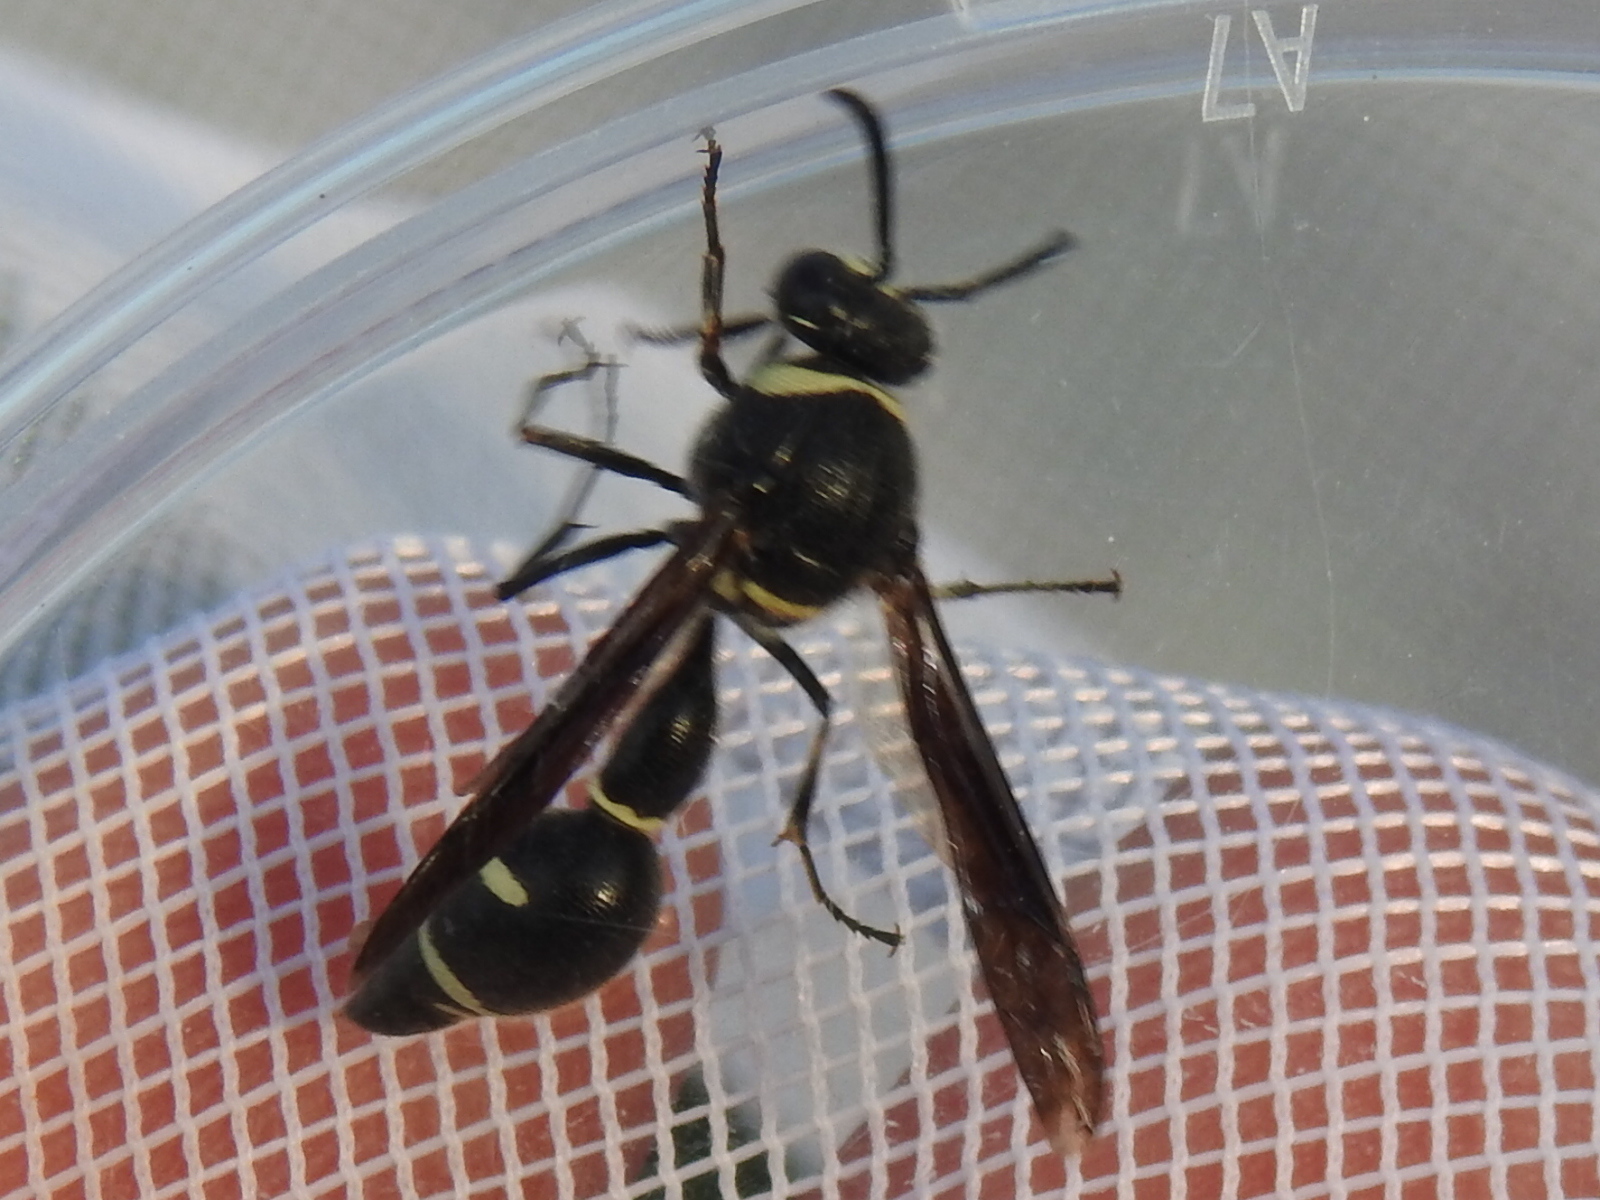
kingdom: Animalia
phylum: Arthropoda
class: Insecta
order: Hymenoptera
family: Vespidae
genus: Eumenes
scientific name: Eumenes fraternus
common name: Fraternal potter wasp
